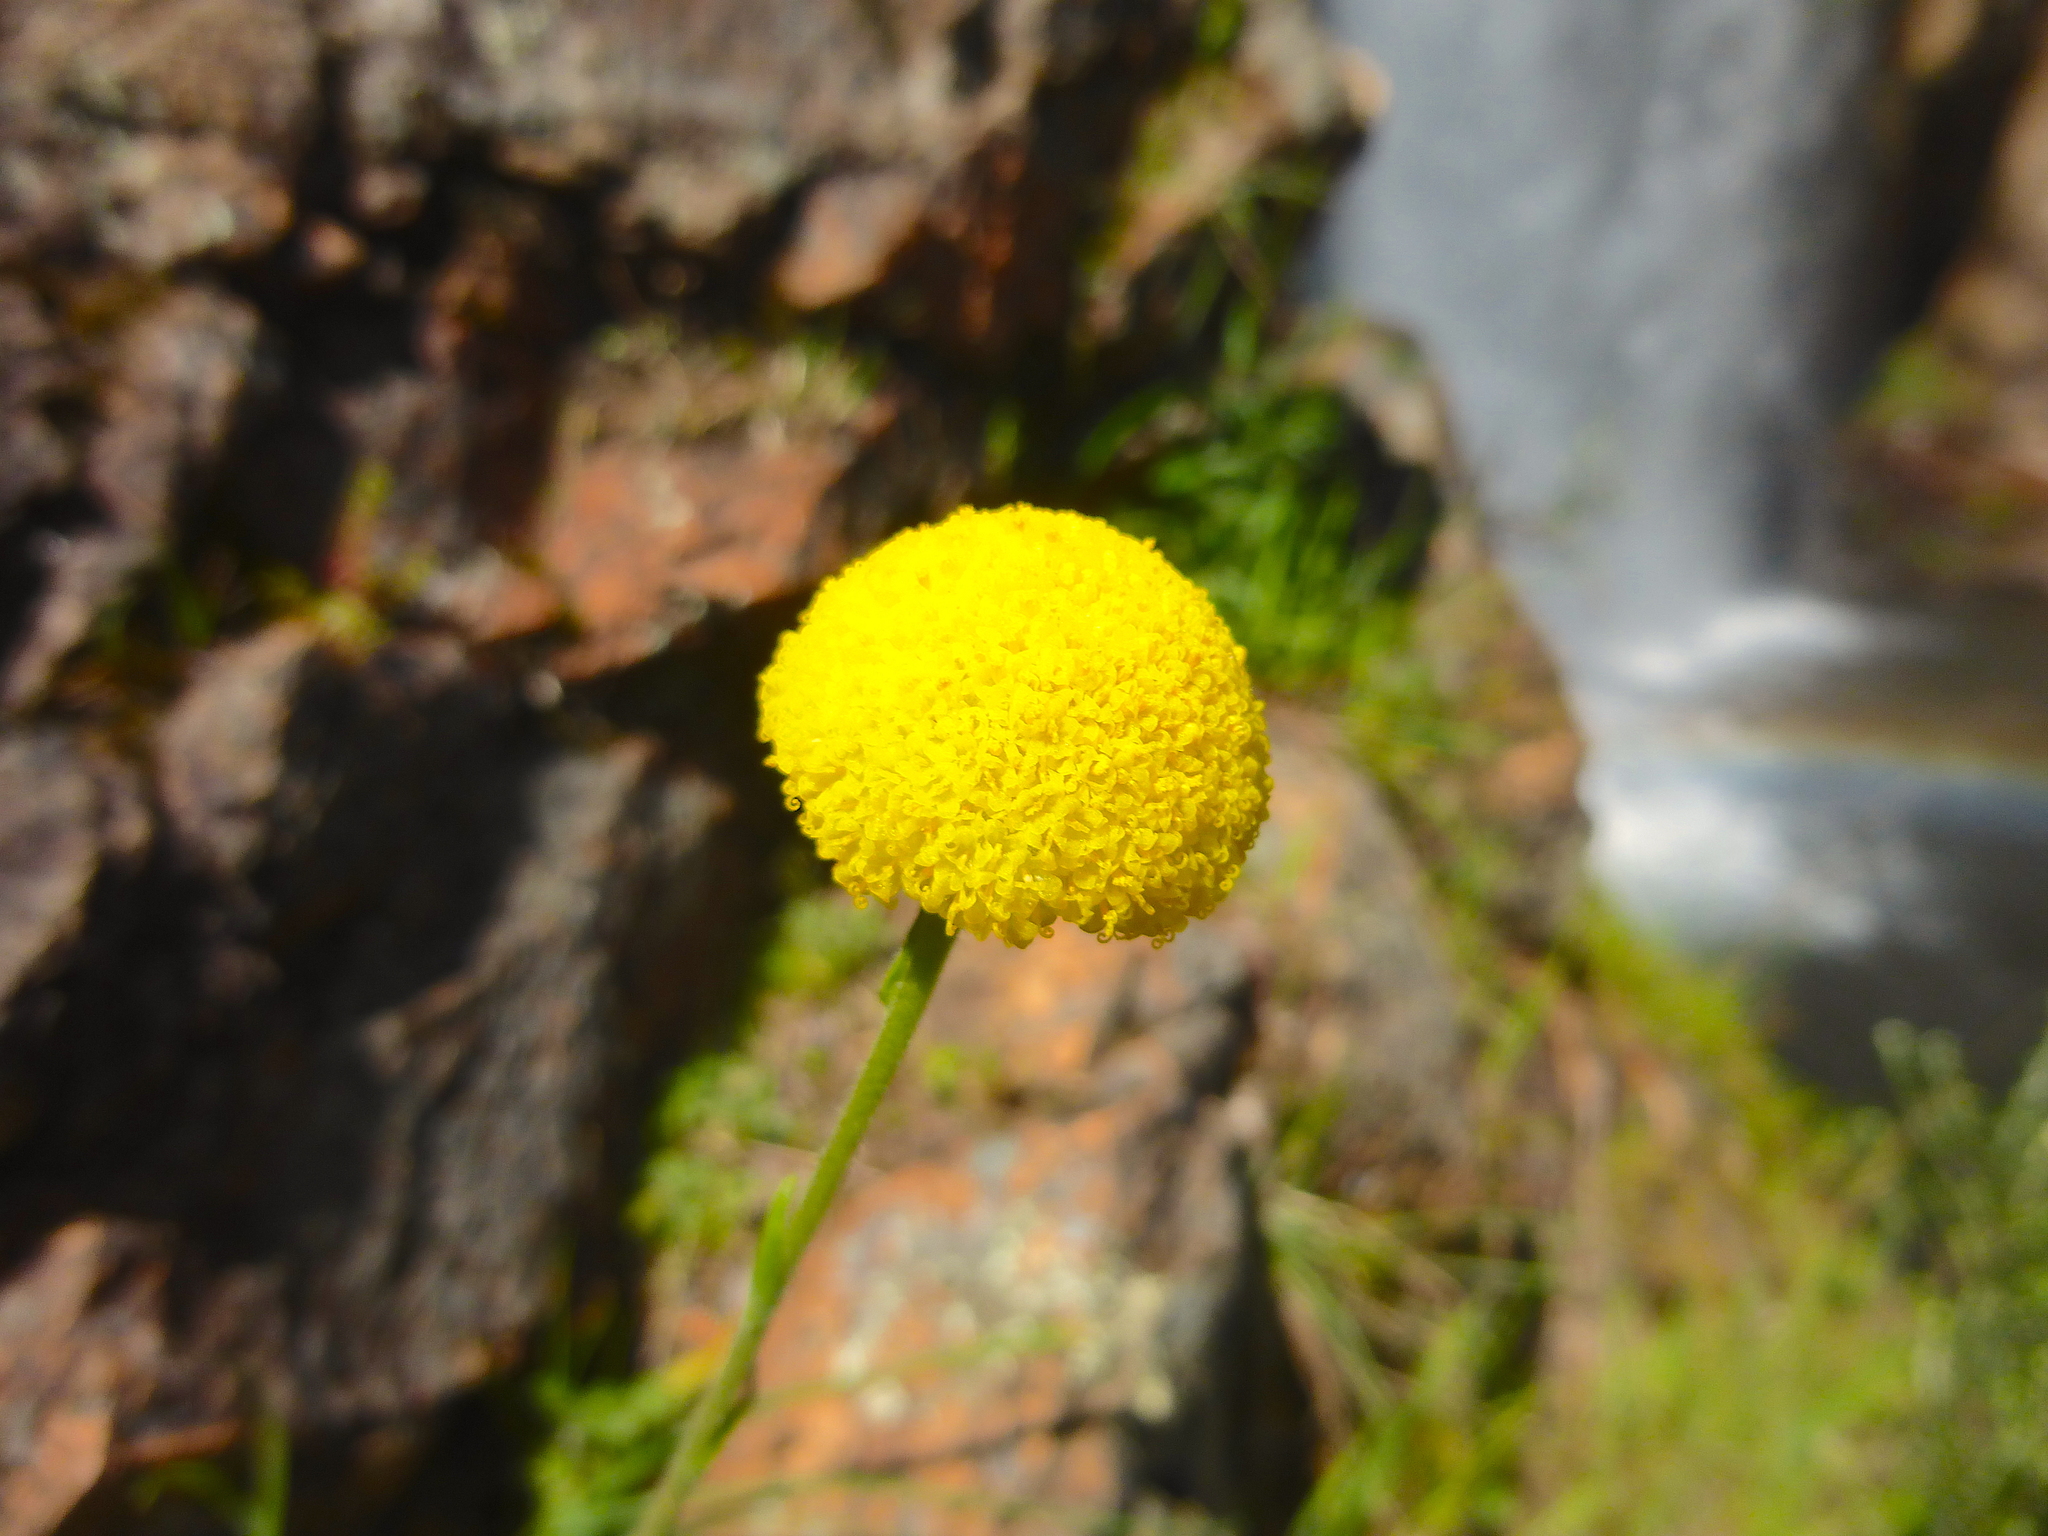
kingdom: Plantae
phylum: Tracheophyta
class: Magnoliopsida
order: Asterales
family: Asteraceae
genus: Craspedia
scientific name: Craspedia variabilis
